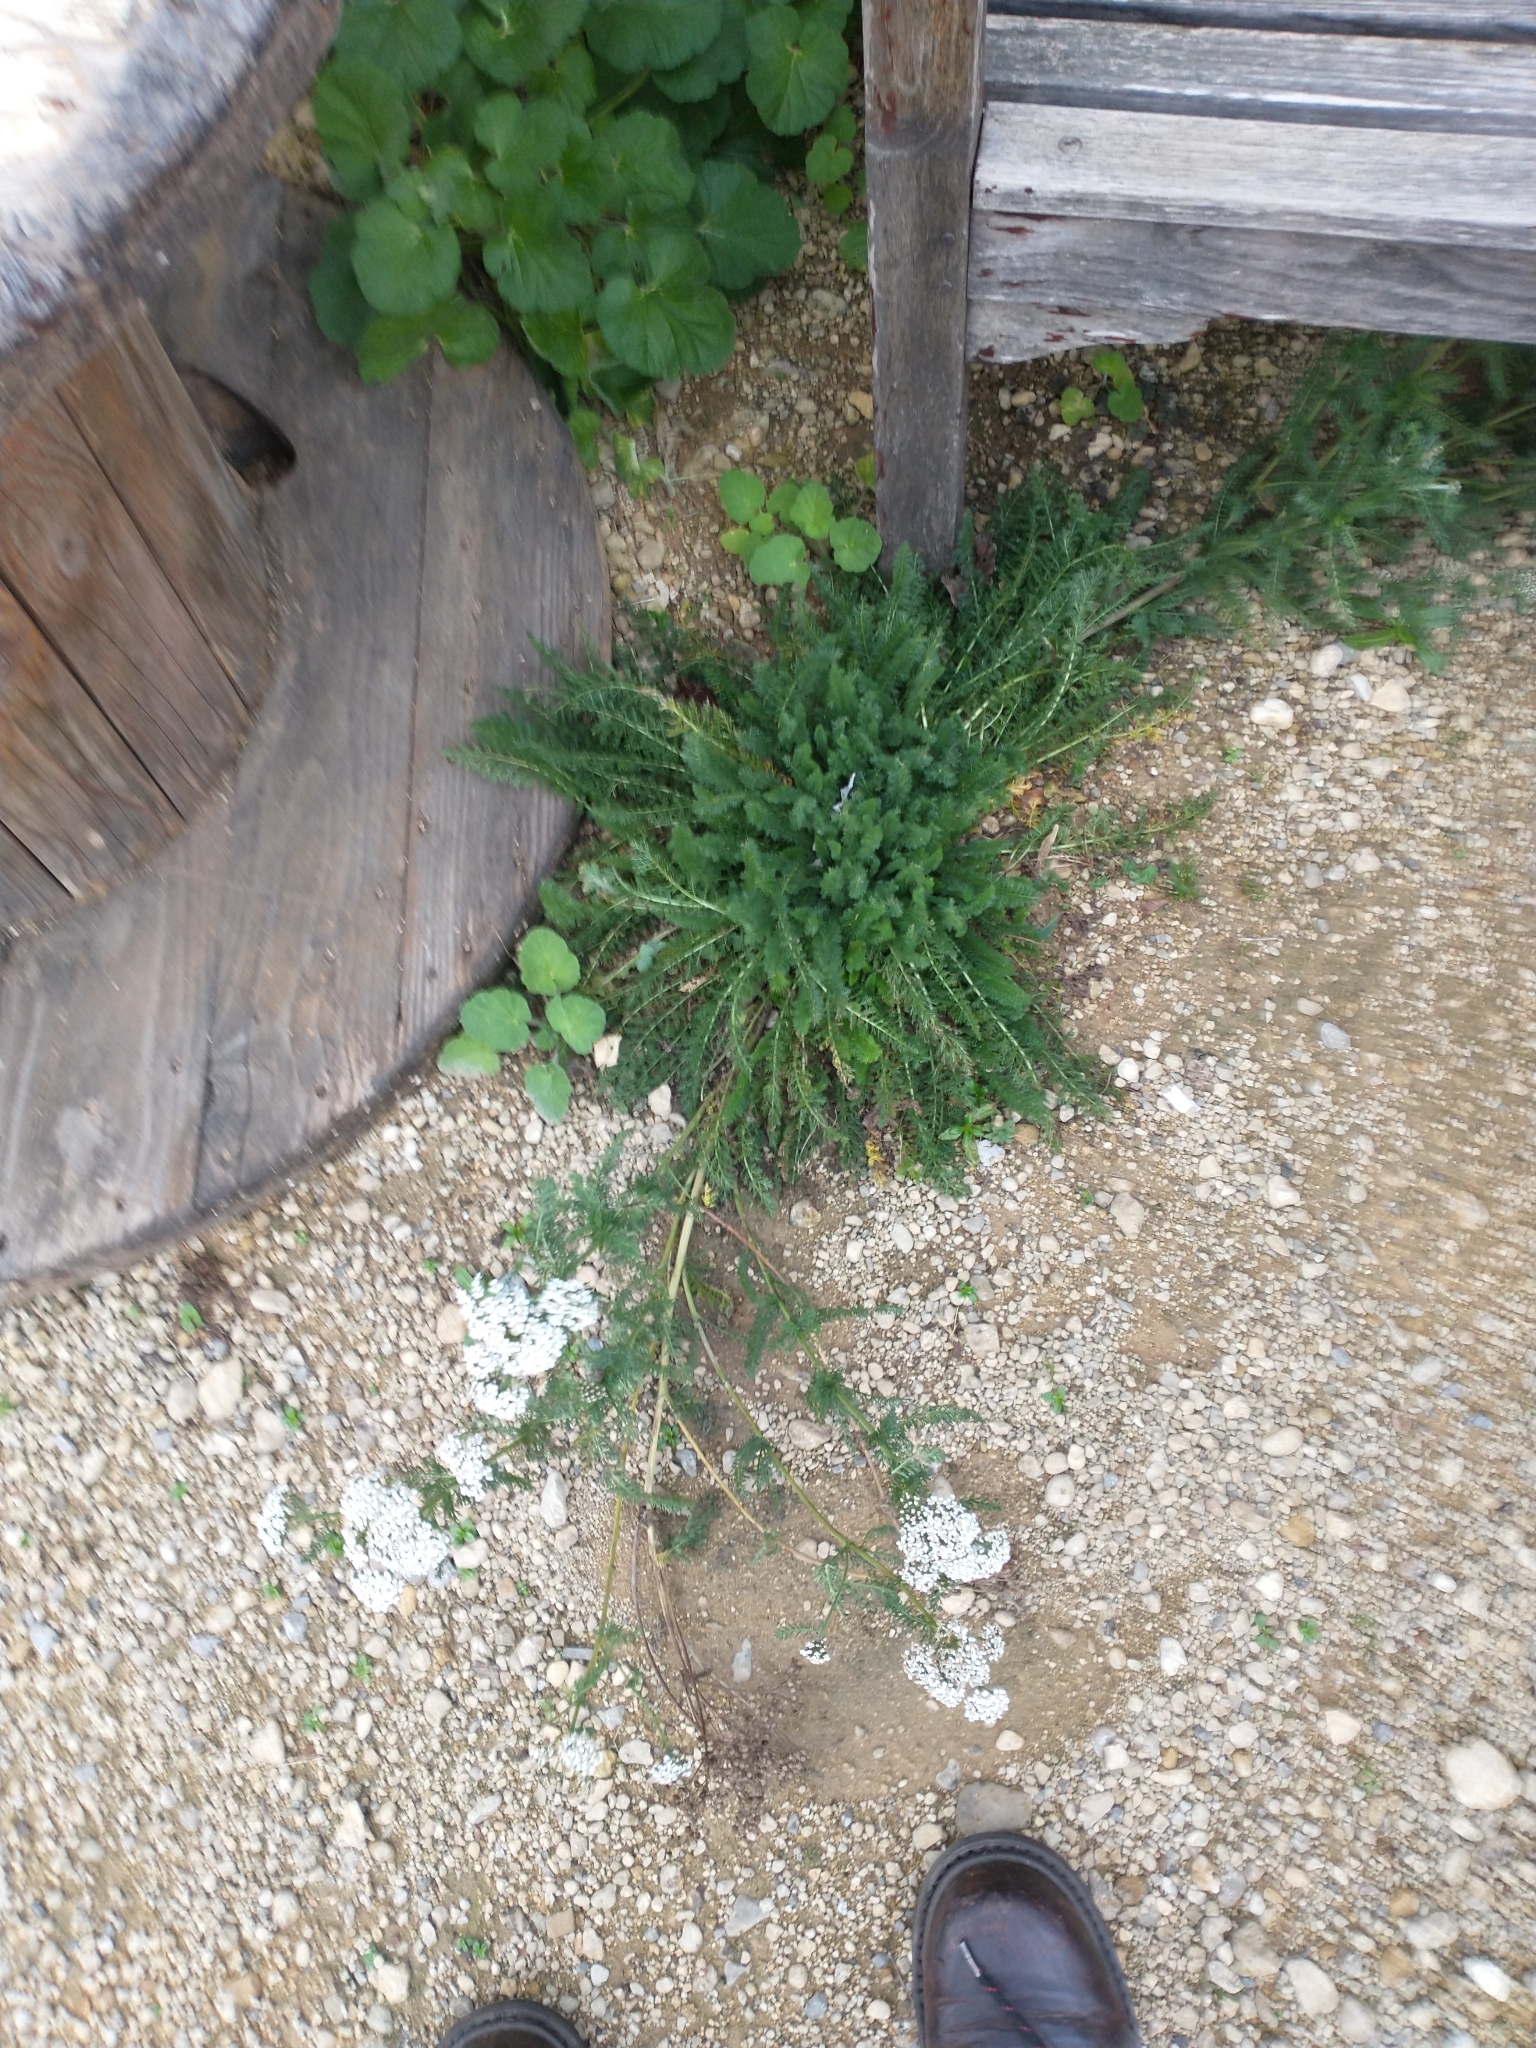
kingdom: Plantae
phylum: Tracheophyta
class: Magnoliopsida
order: Asterales
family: Asteraceae
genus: Achillea
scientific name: Achillea millefolium
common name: Yarrow
